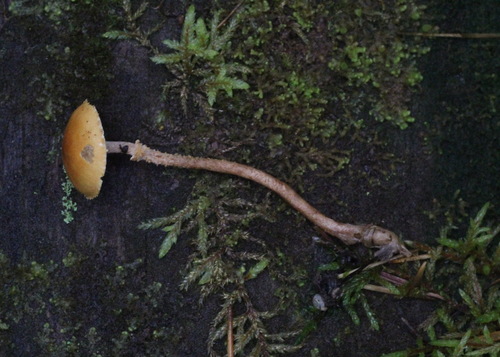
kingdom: Fungi
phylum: Basidiomycota
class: Agaricomycetes
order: Agaricales
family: Tricholomataceae
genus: Cystoderma
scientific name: Cystoderma amianthinum
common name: Earthy powdercap
